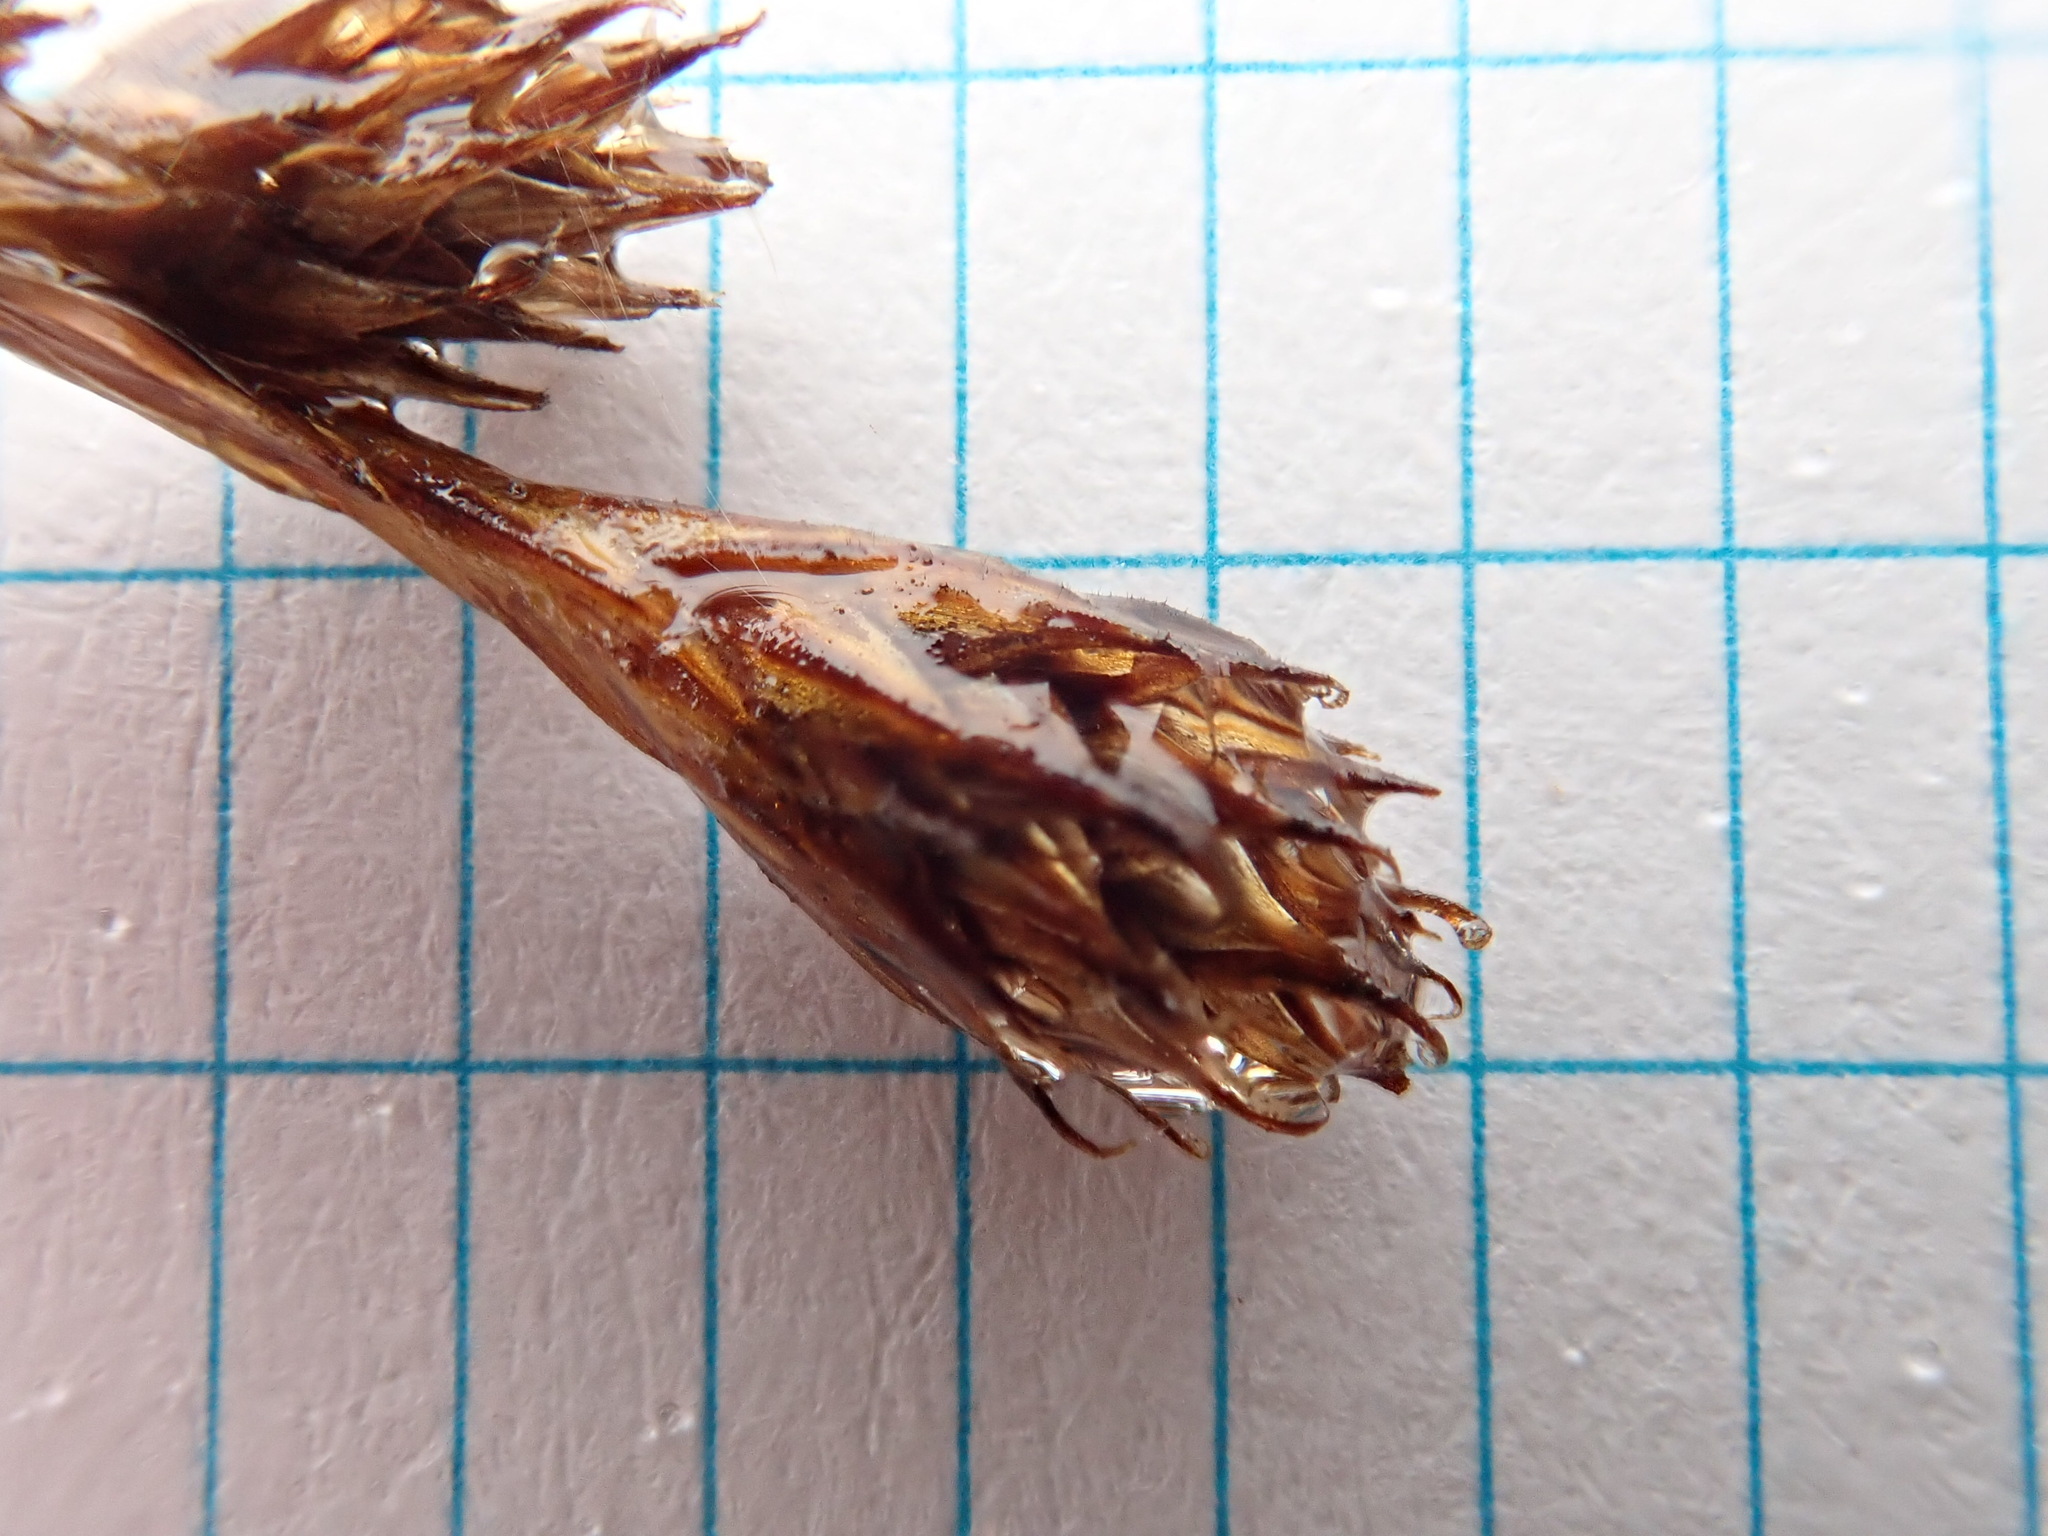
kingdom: Plantae
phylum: Tracheophyta
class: Liliopsida
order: Poales
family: Cyperaceae
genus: Carex
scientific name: Carex projecta
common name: Loose-headed oval sedge
